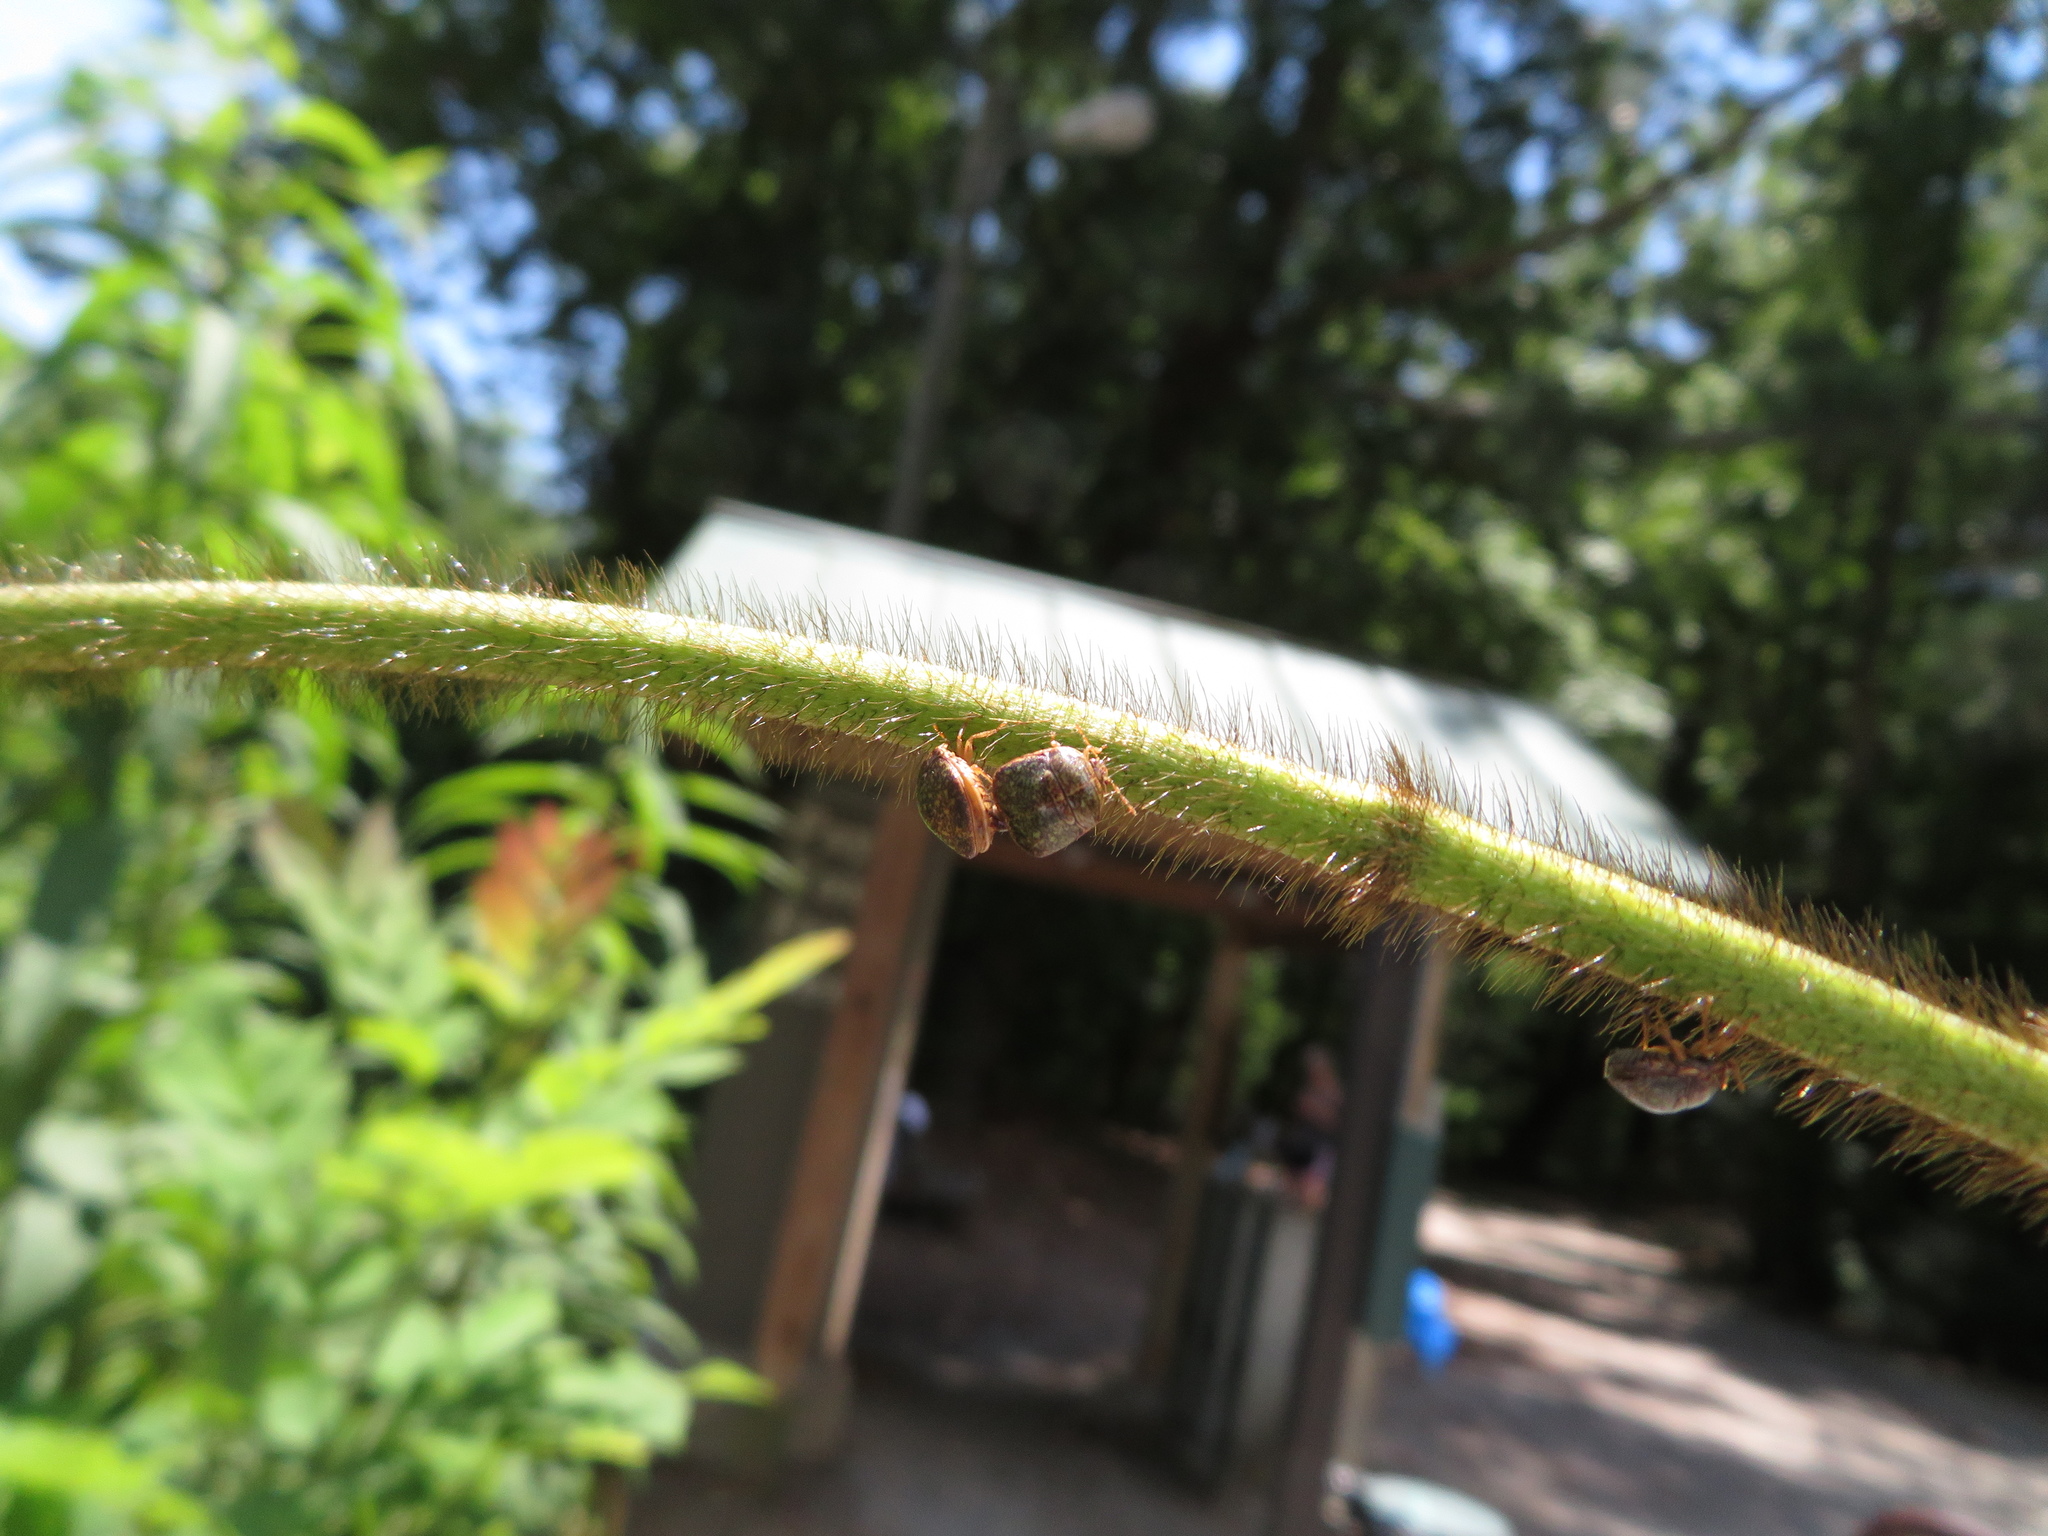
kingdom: Animalia
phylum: Arthropoda
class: Insecta
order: Hemiptera
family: Plataspidae
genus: Megacopta
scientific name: Megacopta cribraria
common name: Bean plataspid
